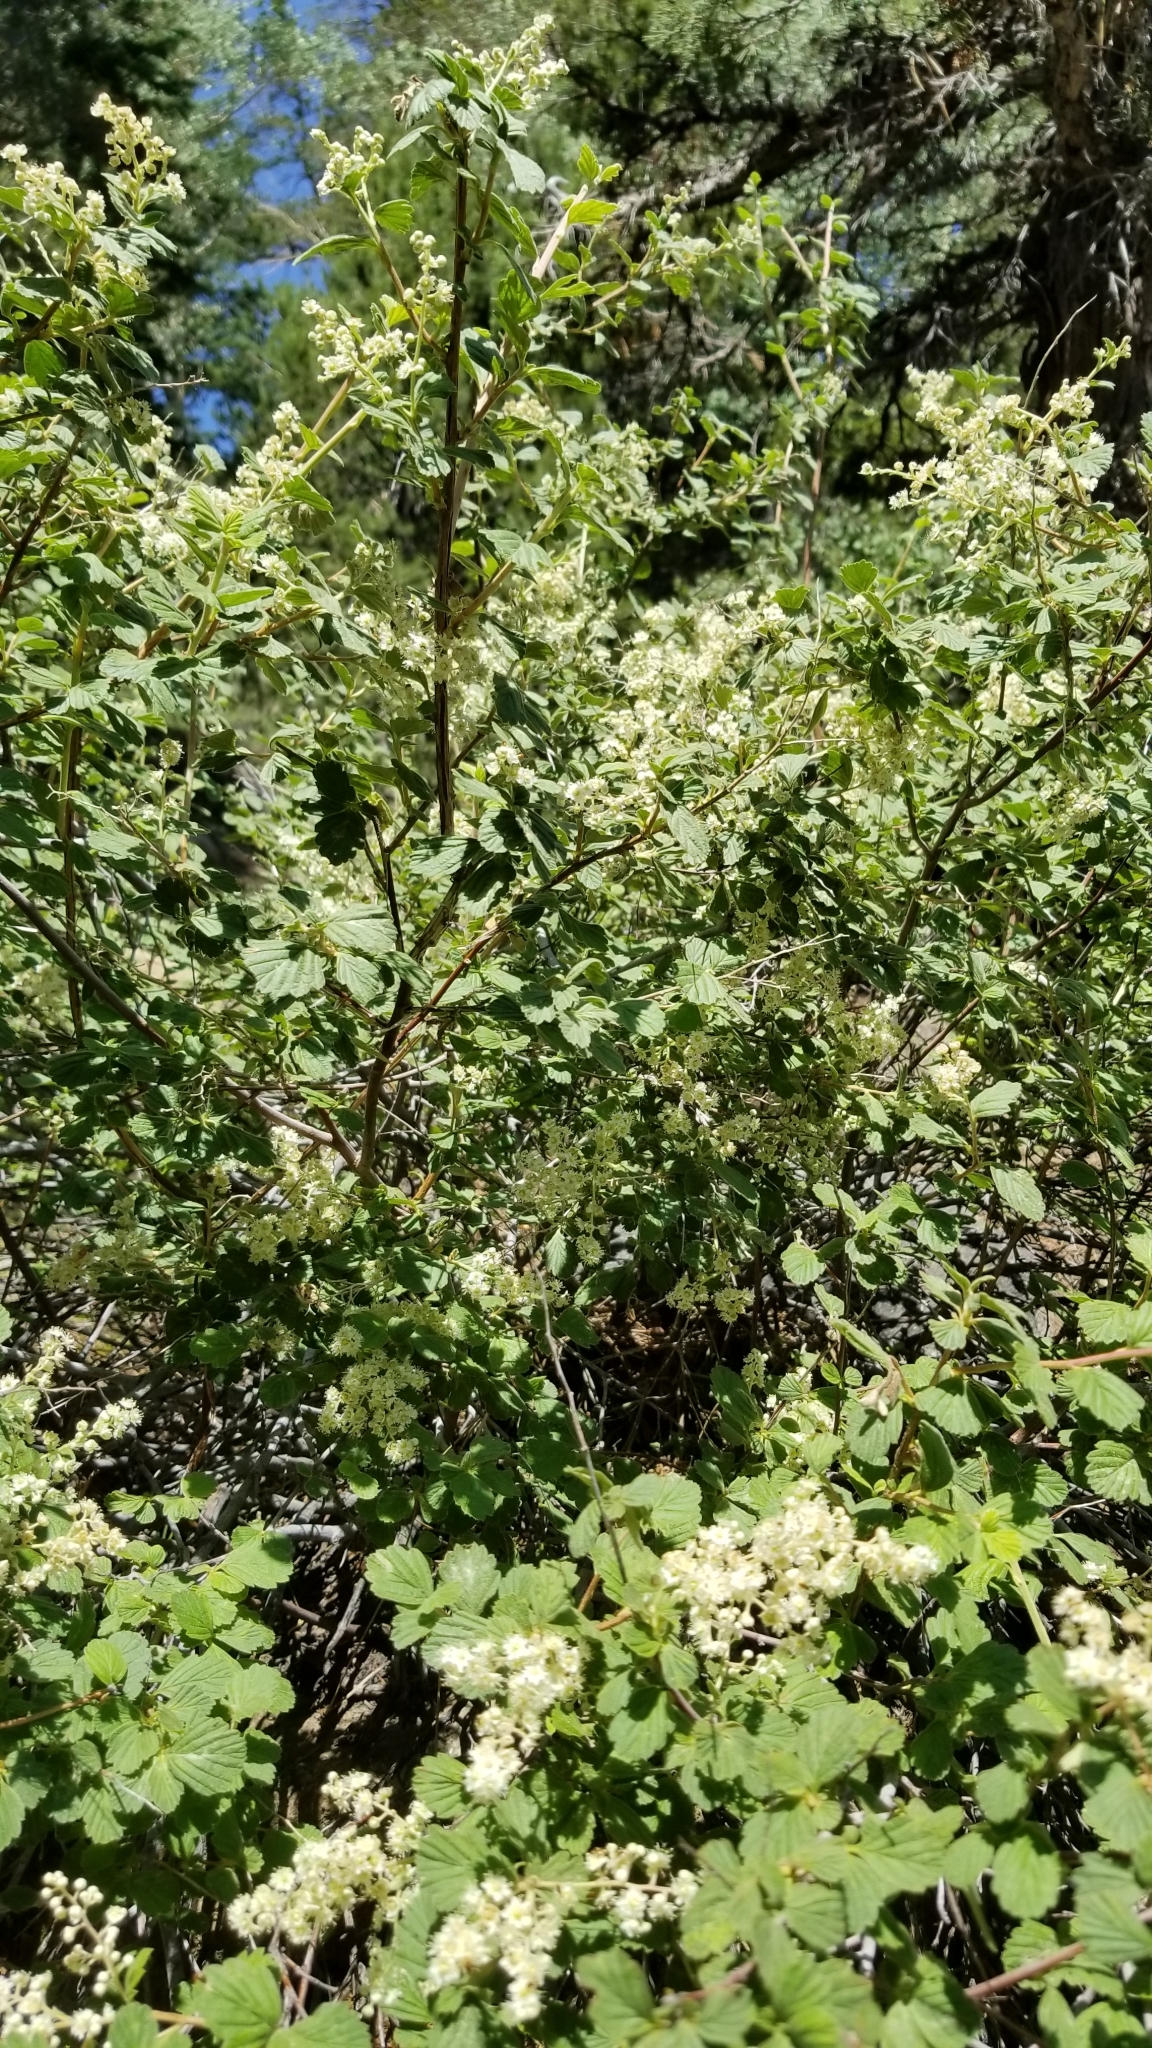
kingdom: Plantae
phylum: Tracheophyta
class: Magnoliopsida
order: Rosales
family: Rosaceae
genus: Holodiscus
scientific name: Holodiscus discolor
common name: Oceanspray
